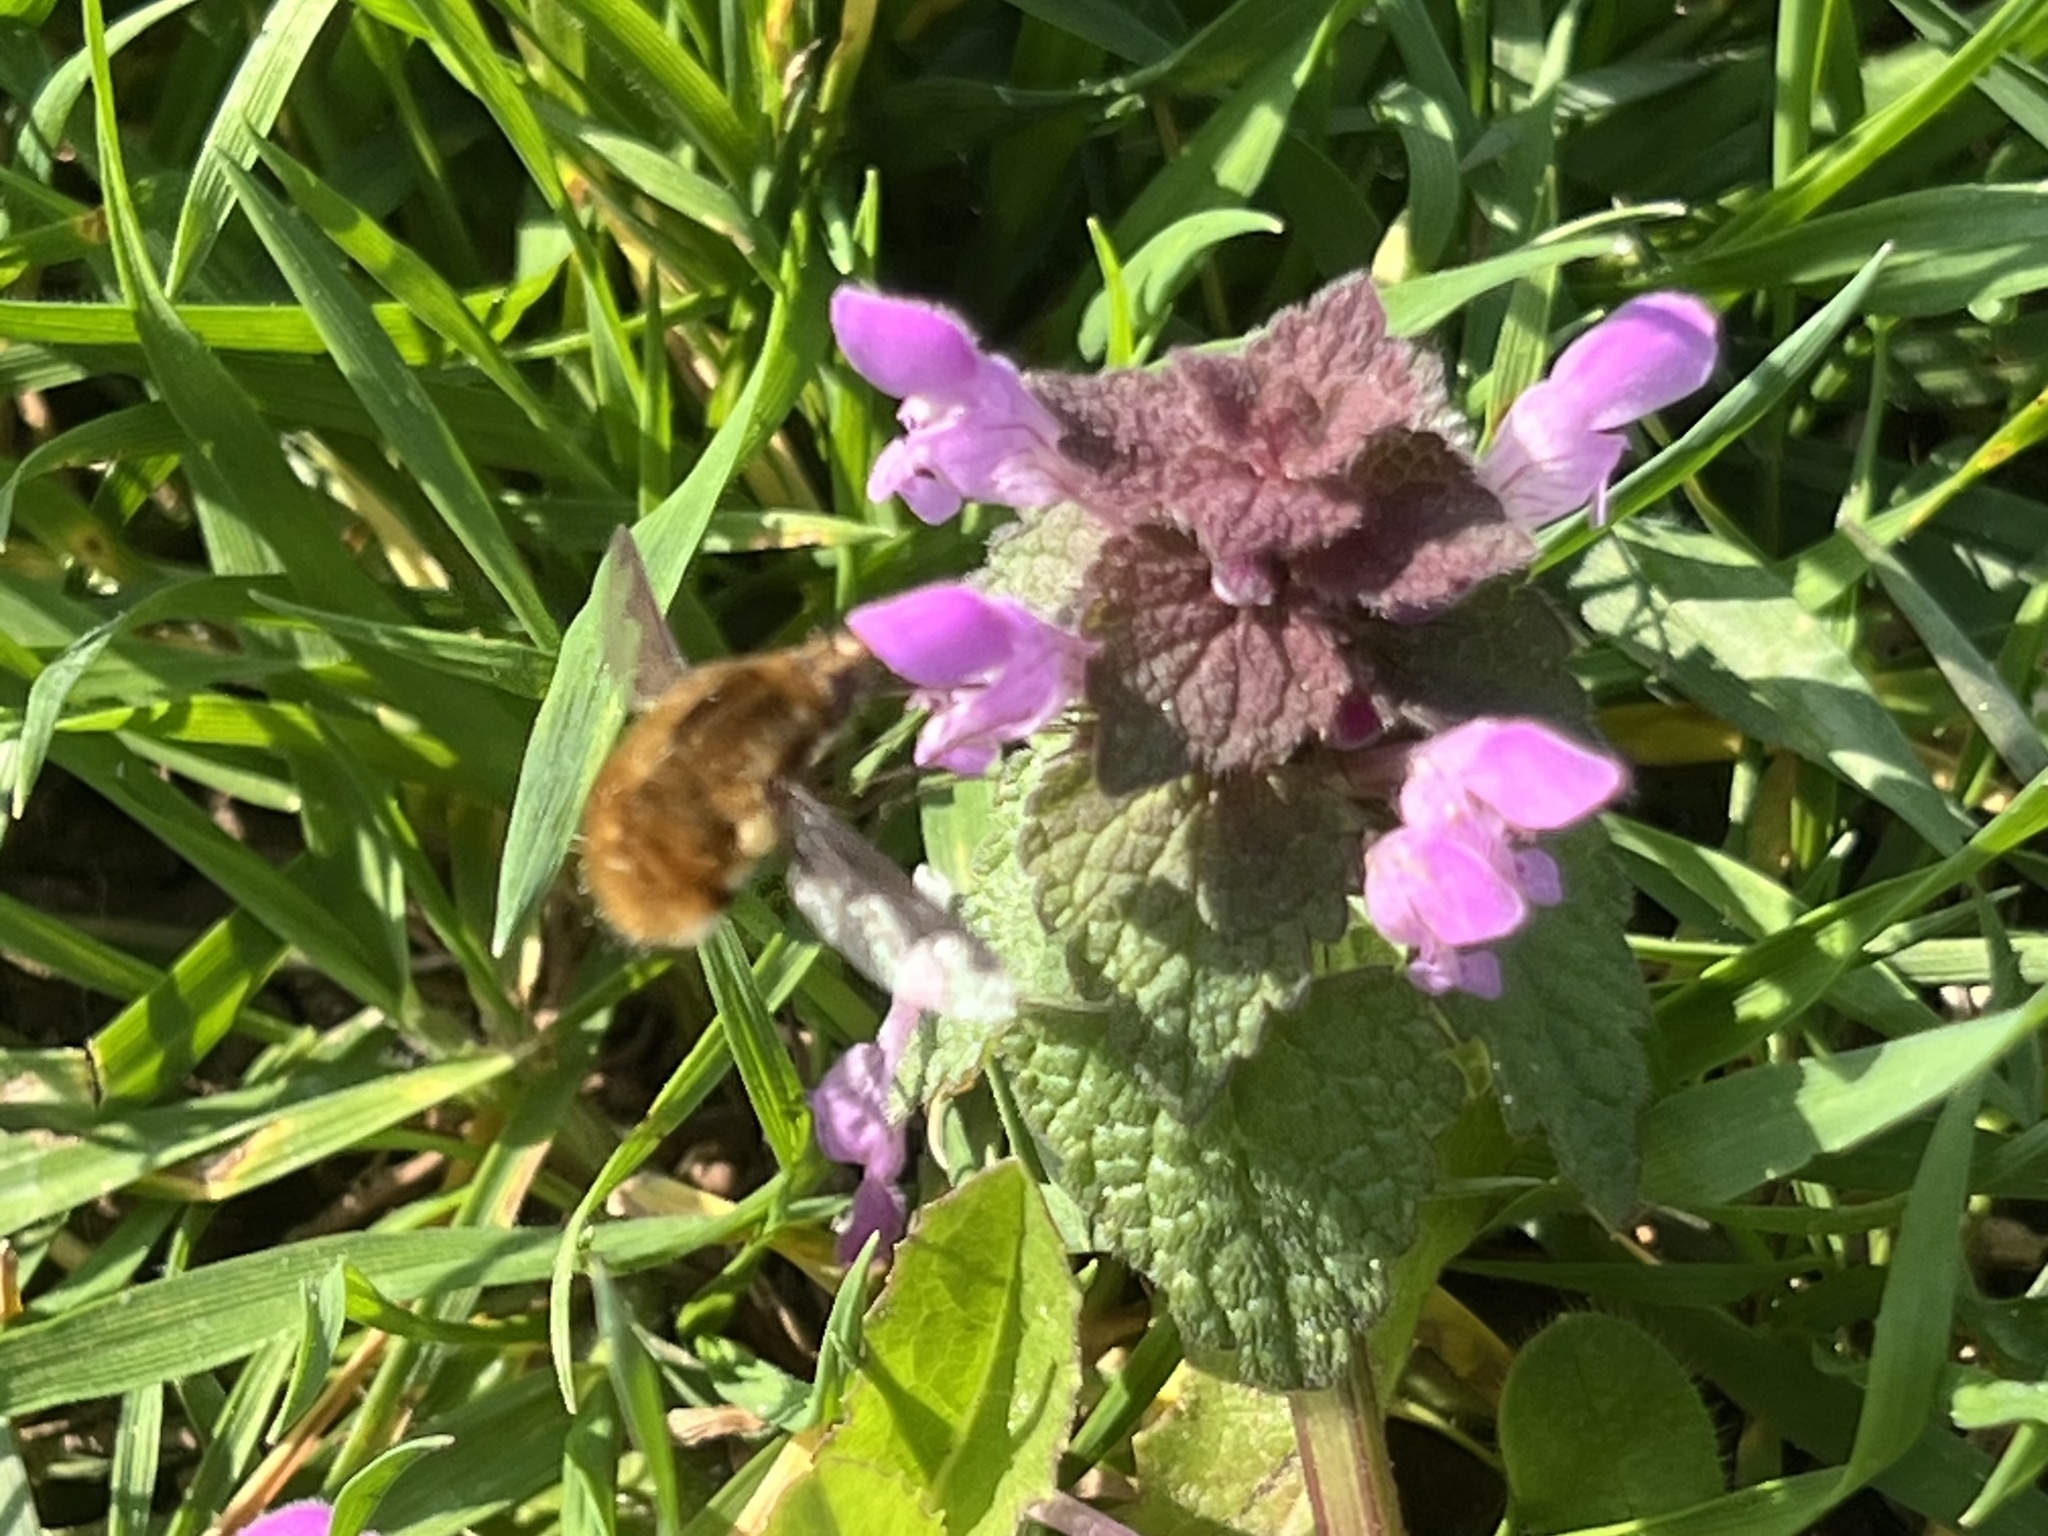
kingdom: Animalia
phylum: Arthropoda
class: Insecta
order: Diptera
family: Bombyliidae
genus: Bombylius
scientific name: Bombylius major
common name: Bee fly
